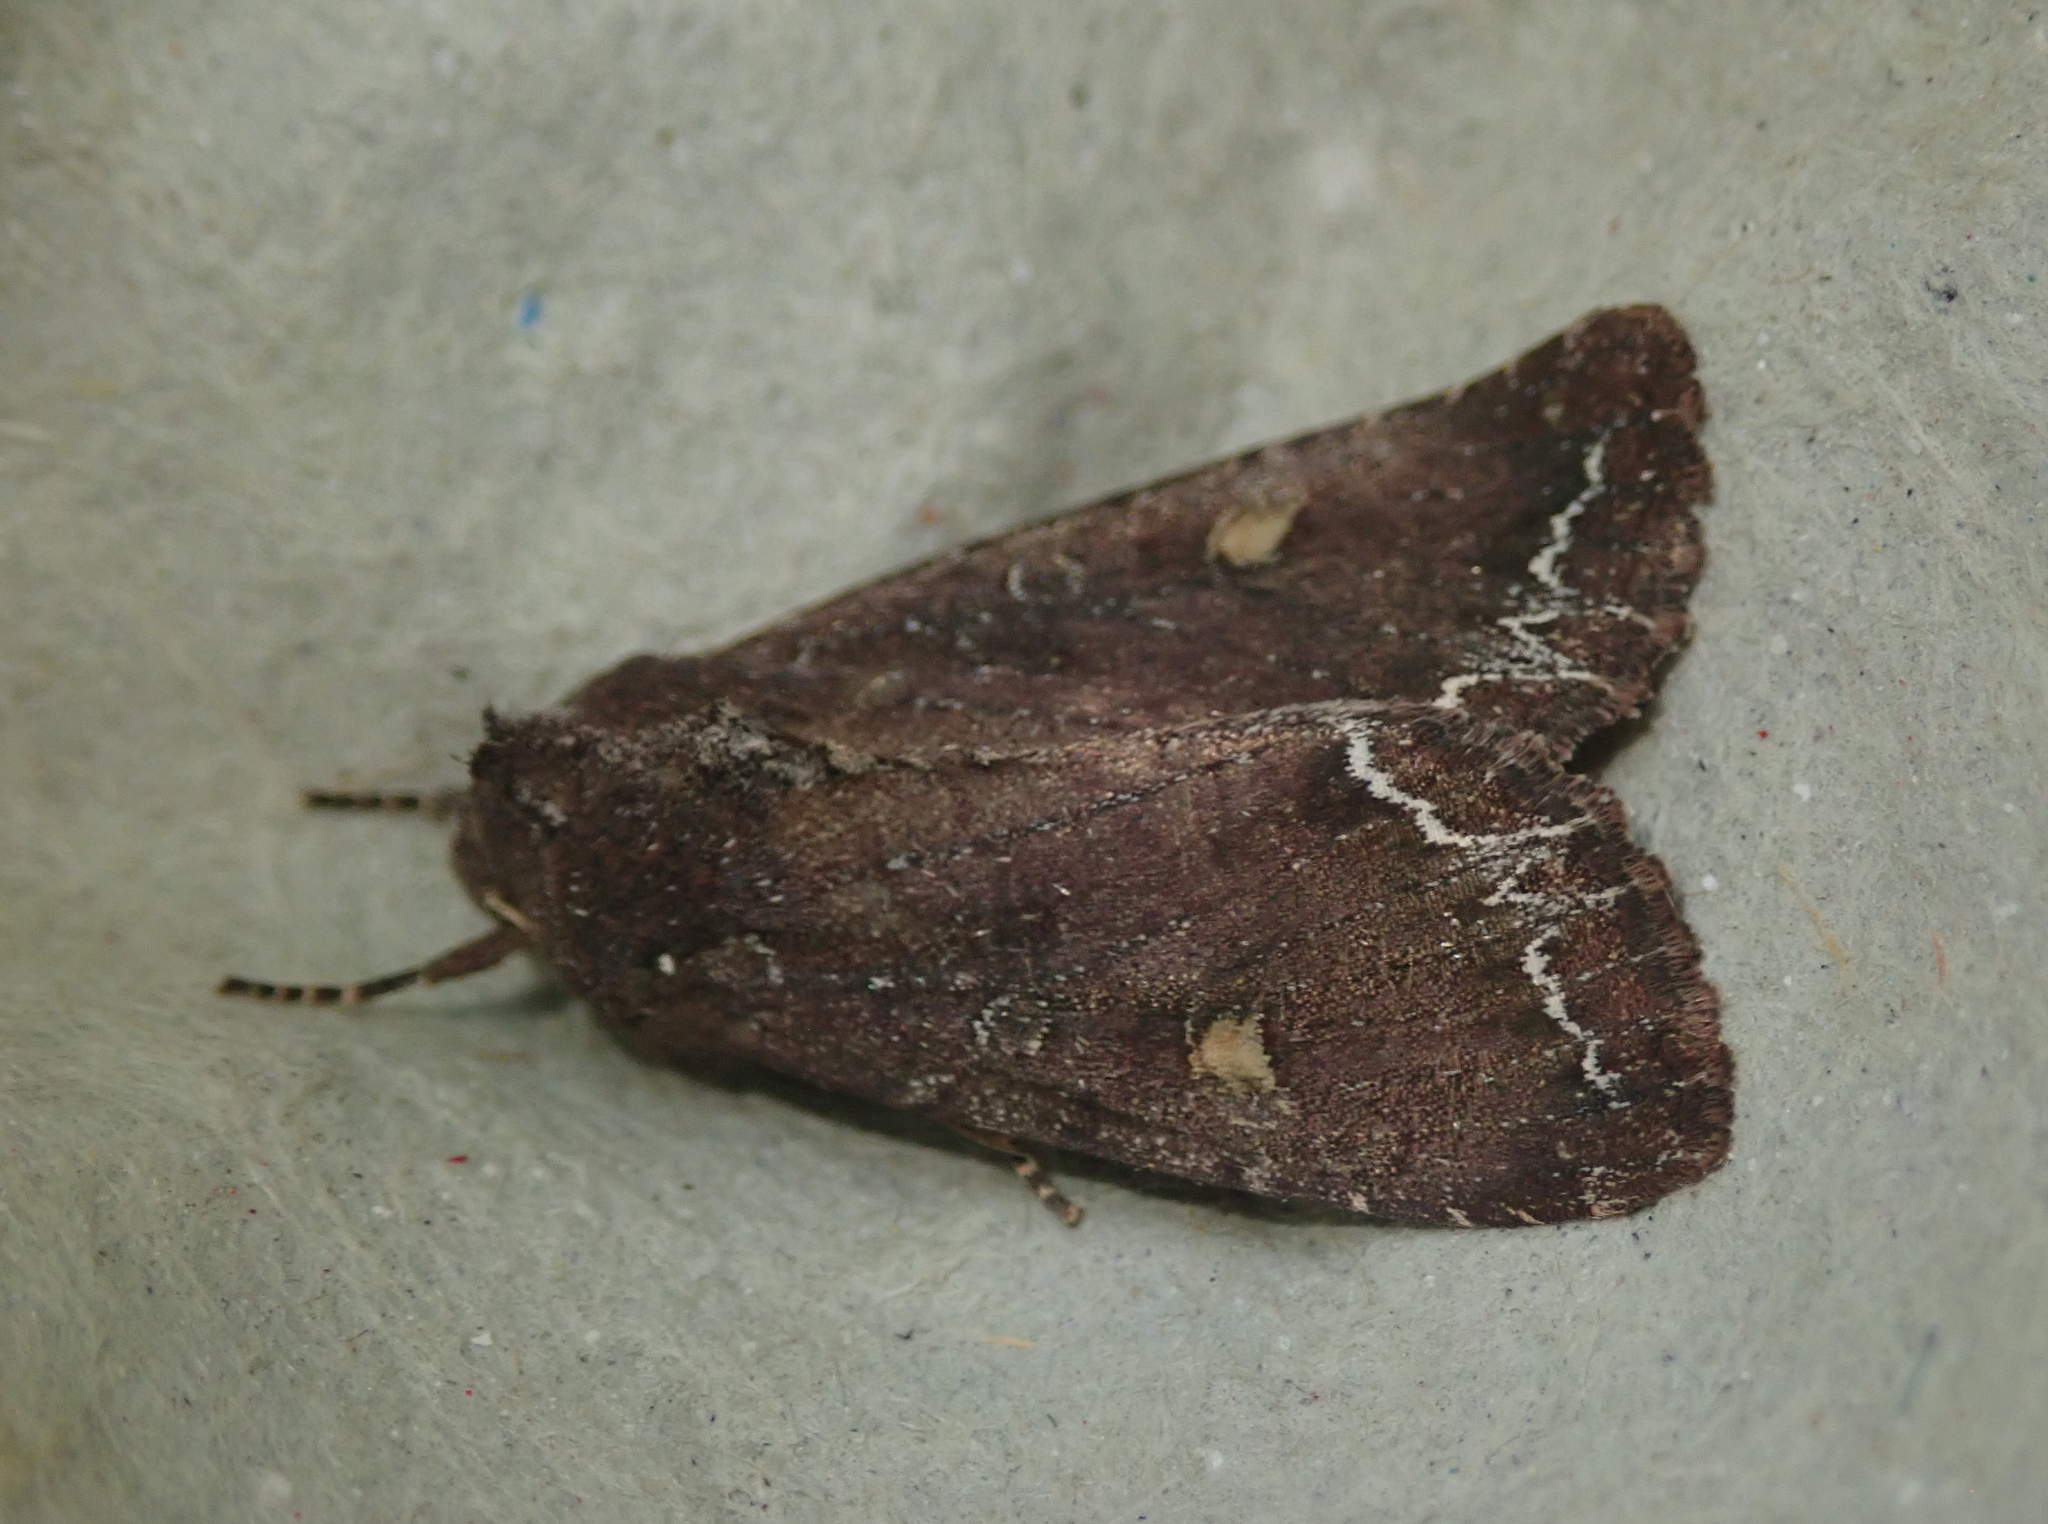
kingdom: Animalia
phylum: Arthropoda
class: Insecta
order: Lepidoptera
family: Noctuidae
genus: Lacanobia
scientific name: Lacanobia oleracea
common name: Bright-line brown-eye
